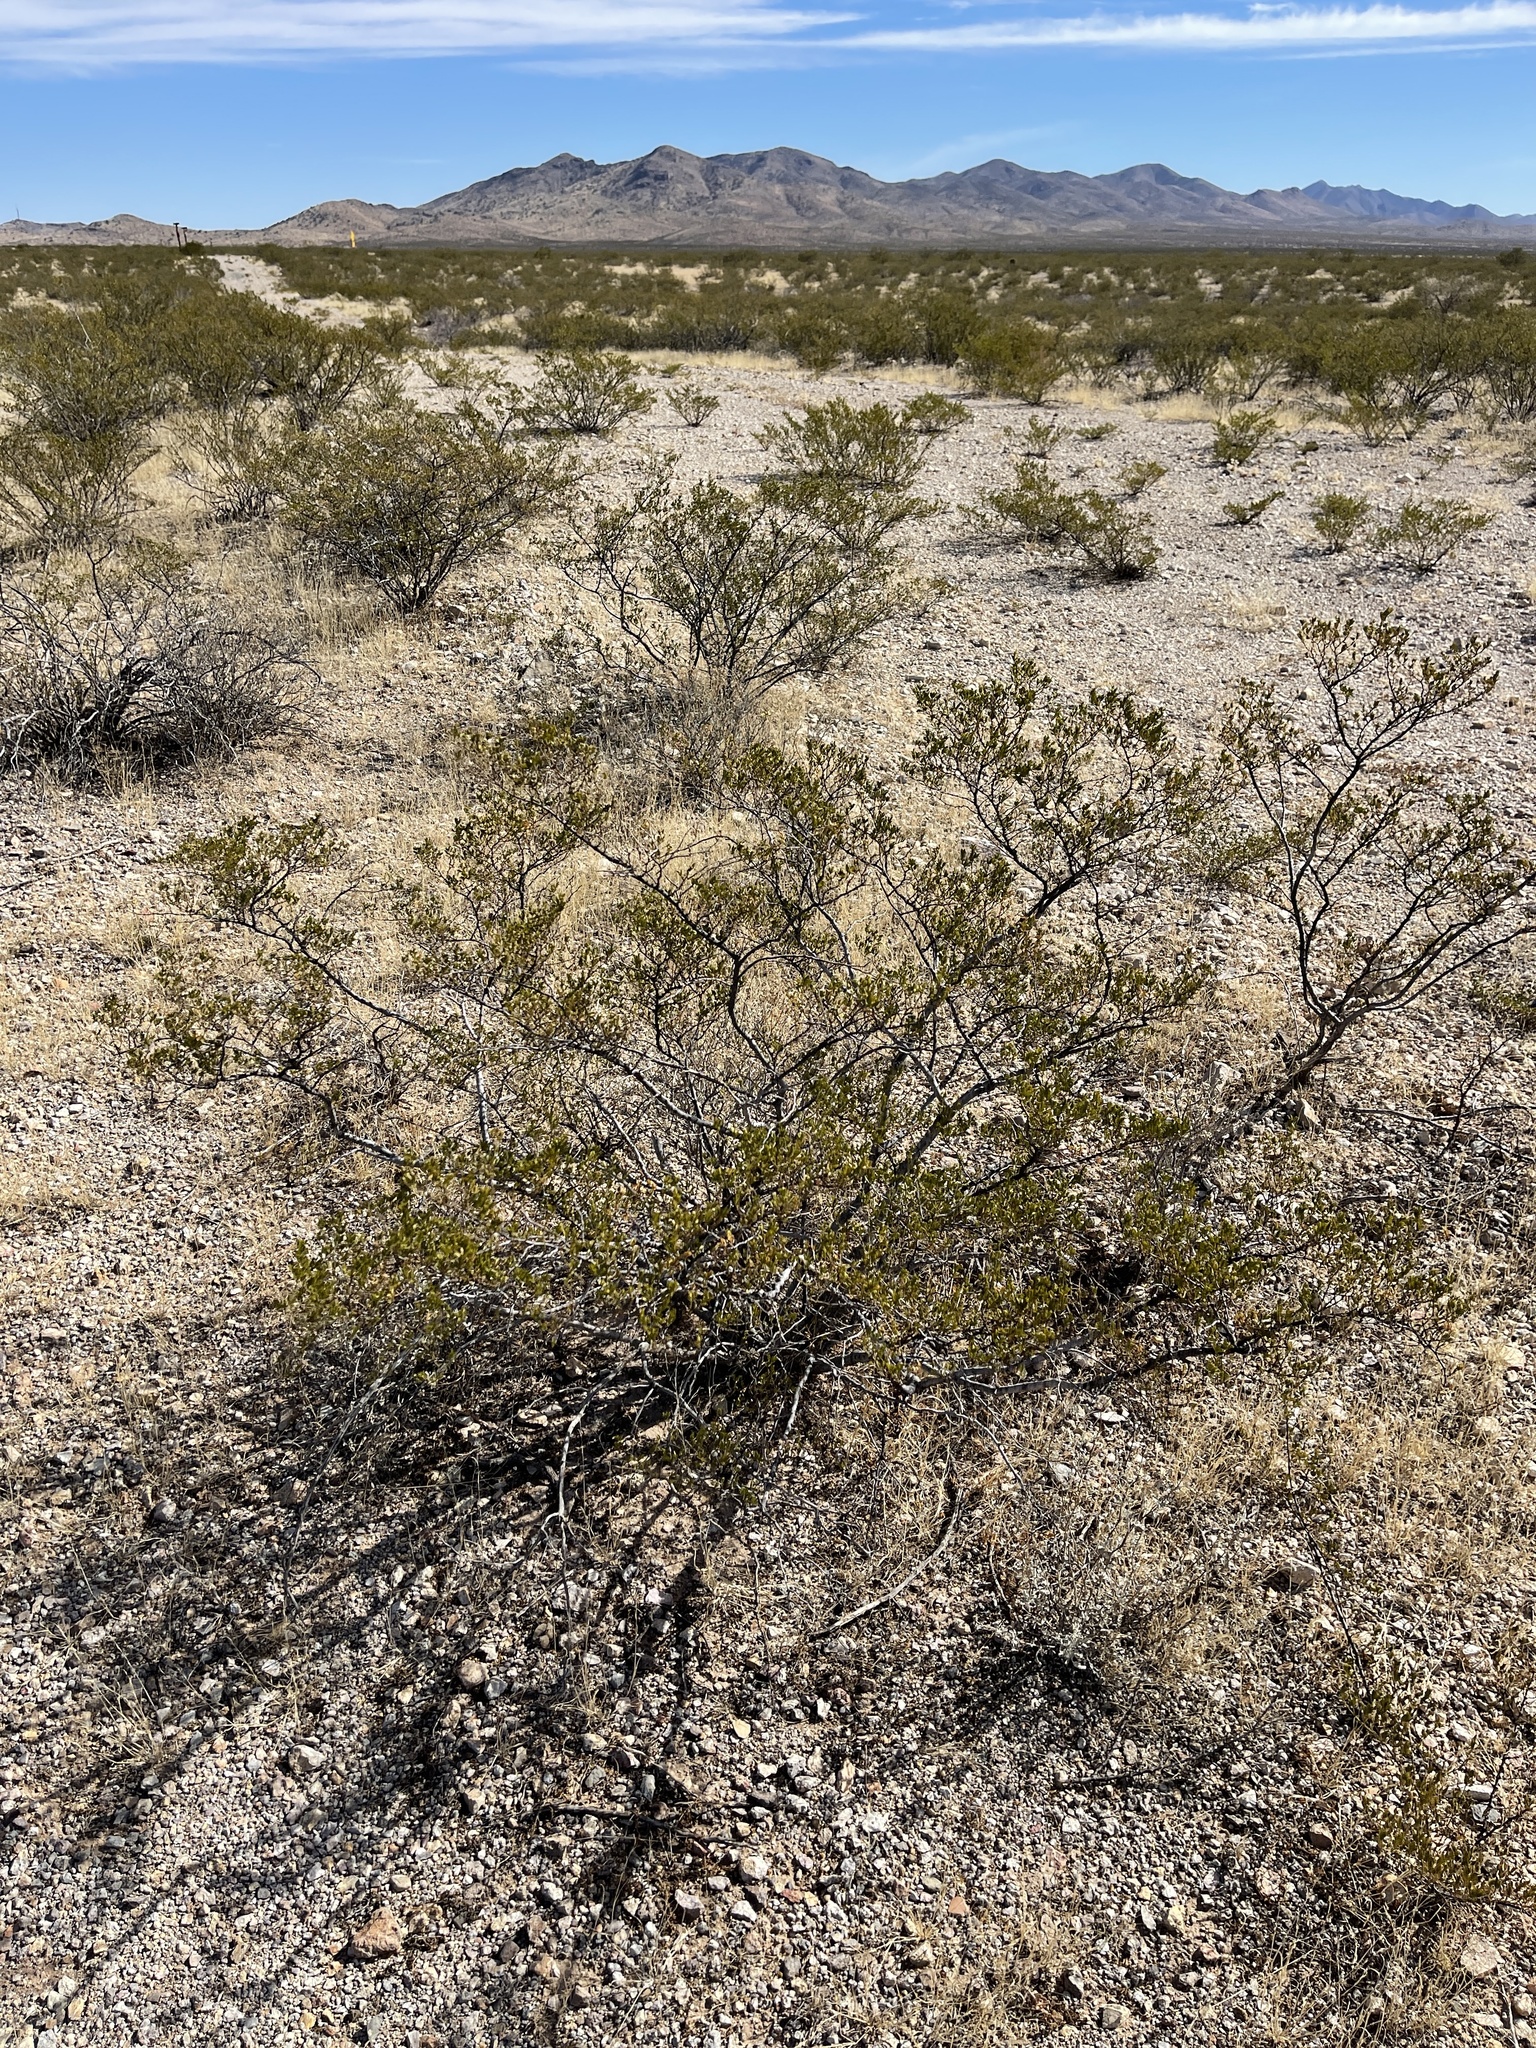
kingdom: Plantae
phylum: Tracheophyta
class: Magnoliopsida
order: Zygophyllales
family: Zygophyllaceae
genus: Larrea
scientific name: Larrea tridentata
